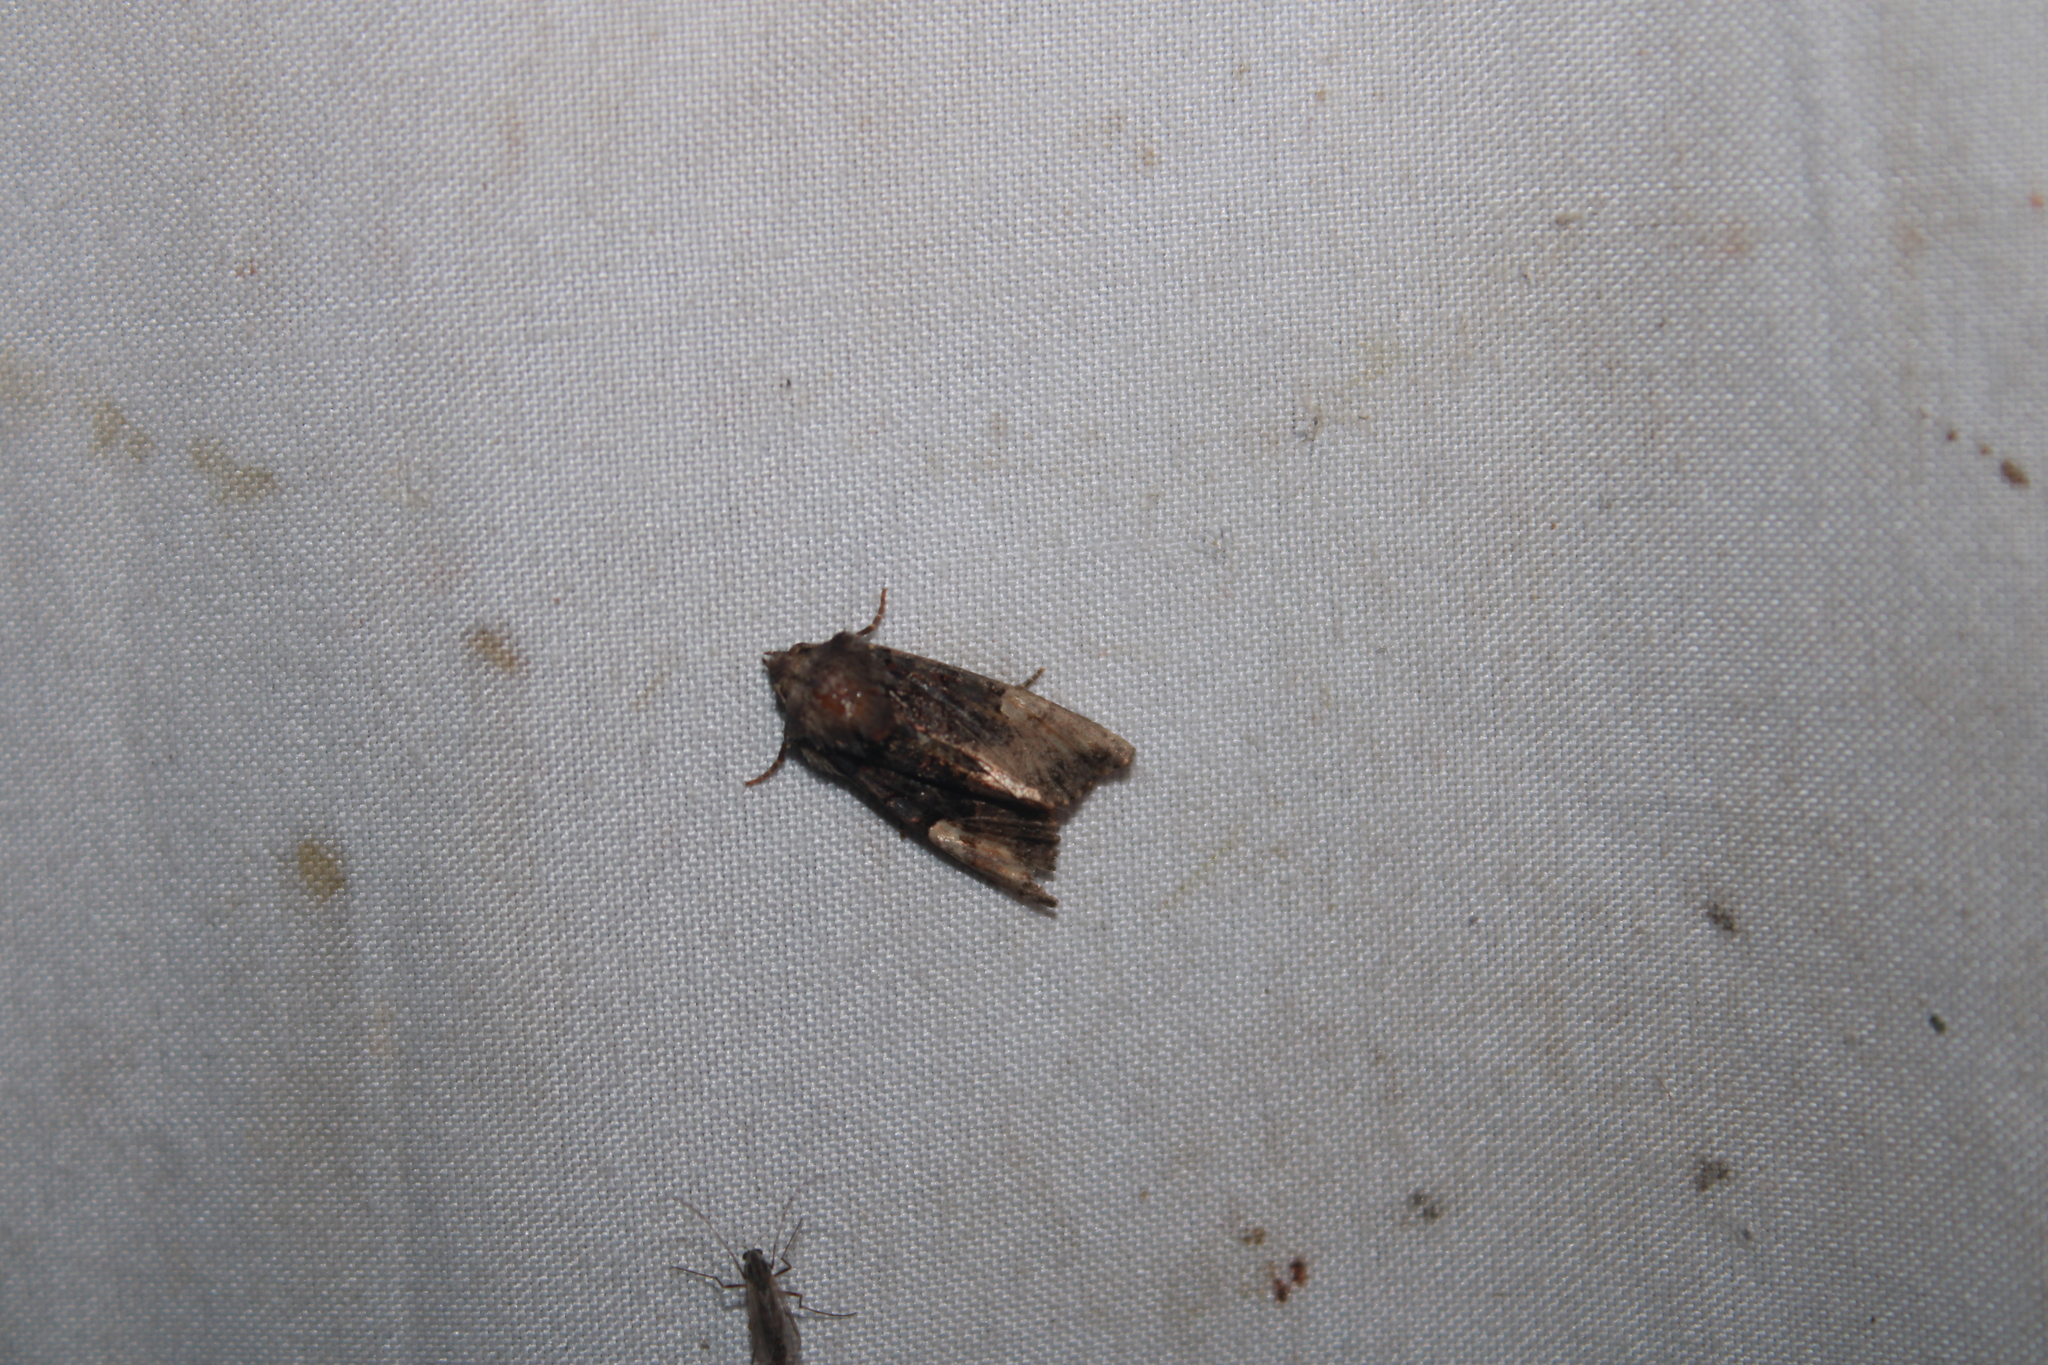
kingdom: Animalia
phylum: Arthropoda
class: Insecta
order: Lepidoptera
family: Noctuidae
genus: Euplexia
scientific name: Euplexia benesimilis
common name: American angle shades
